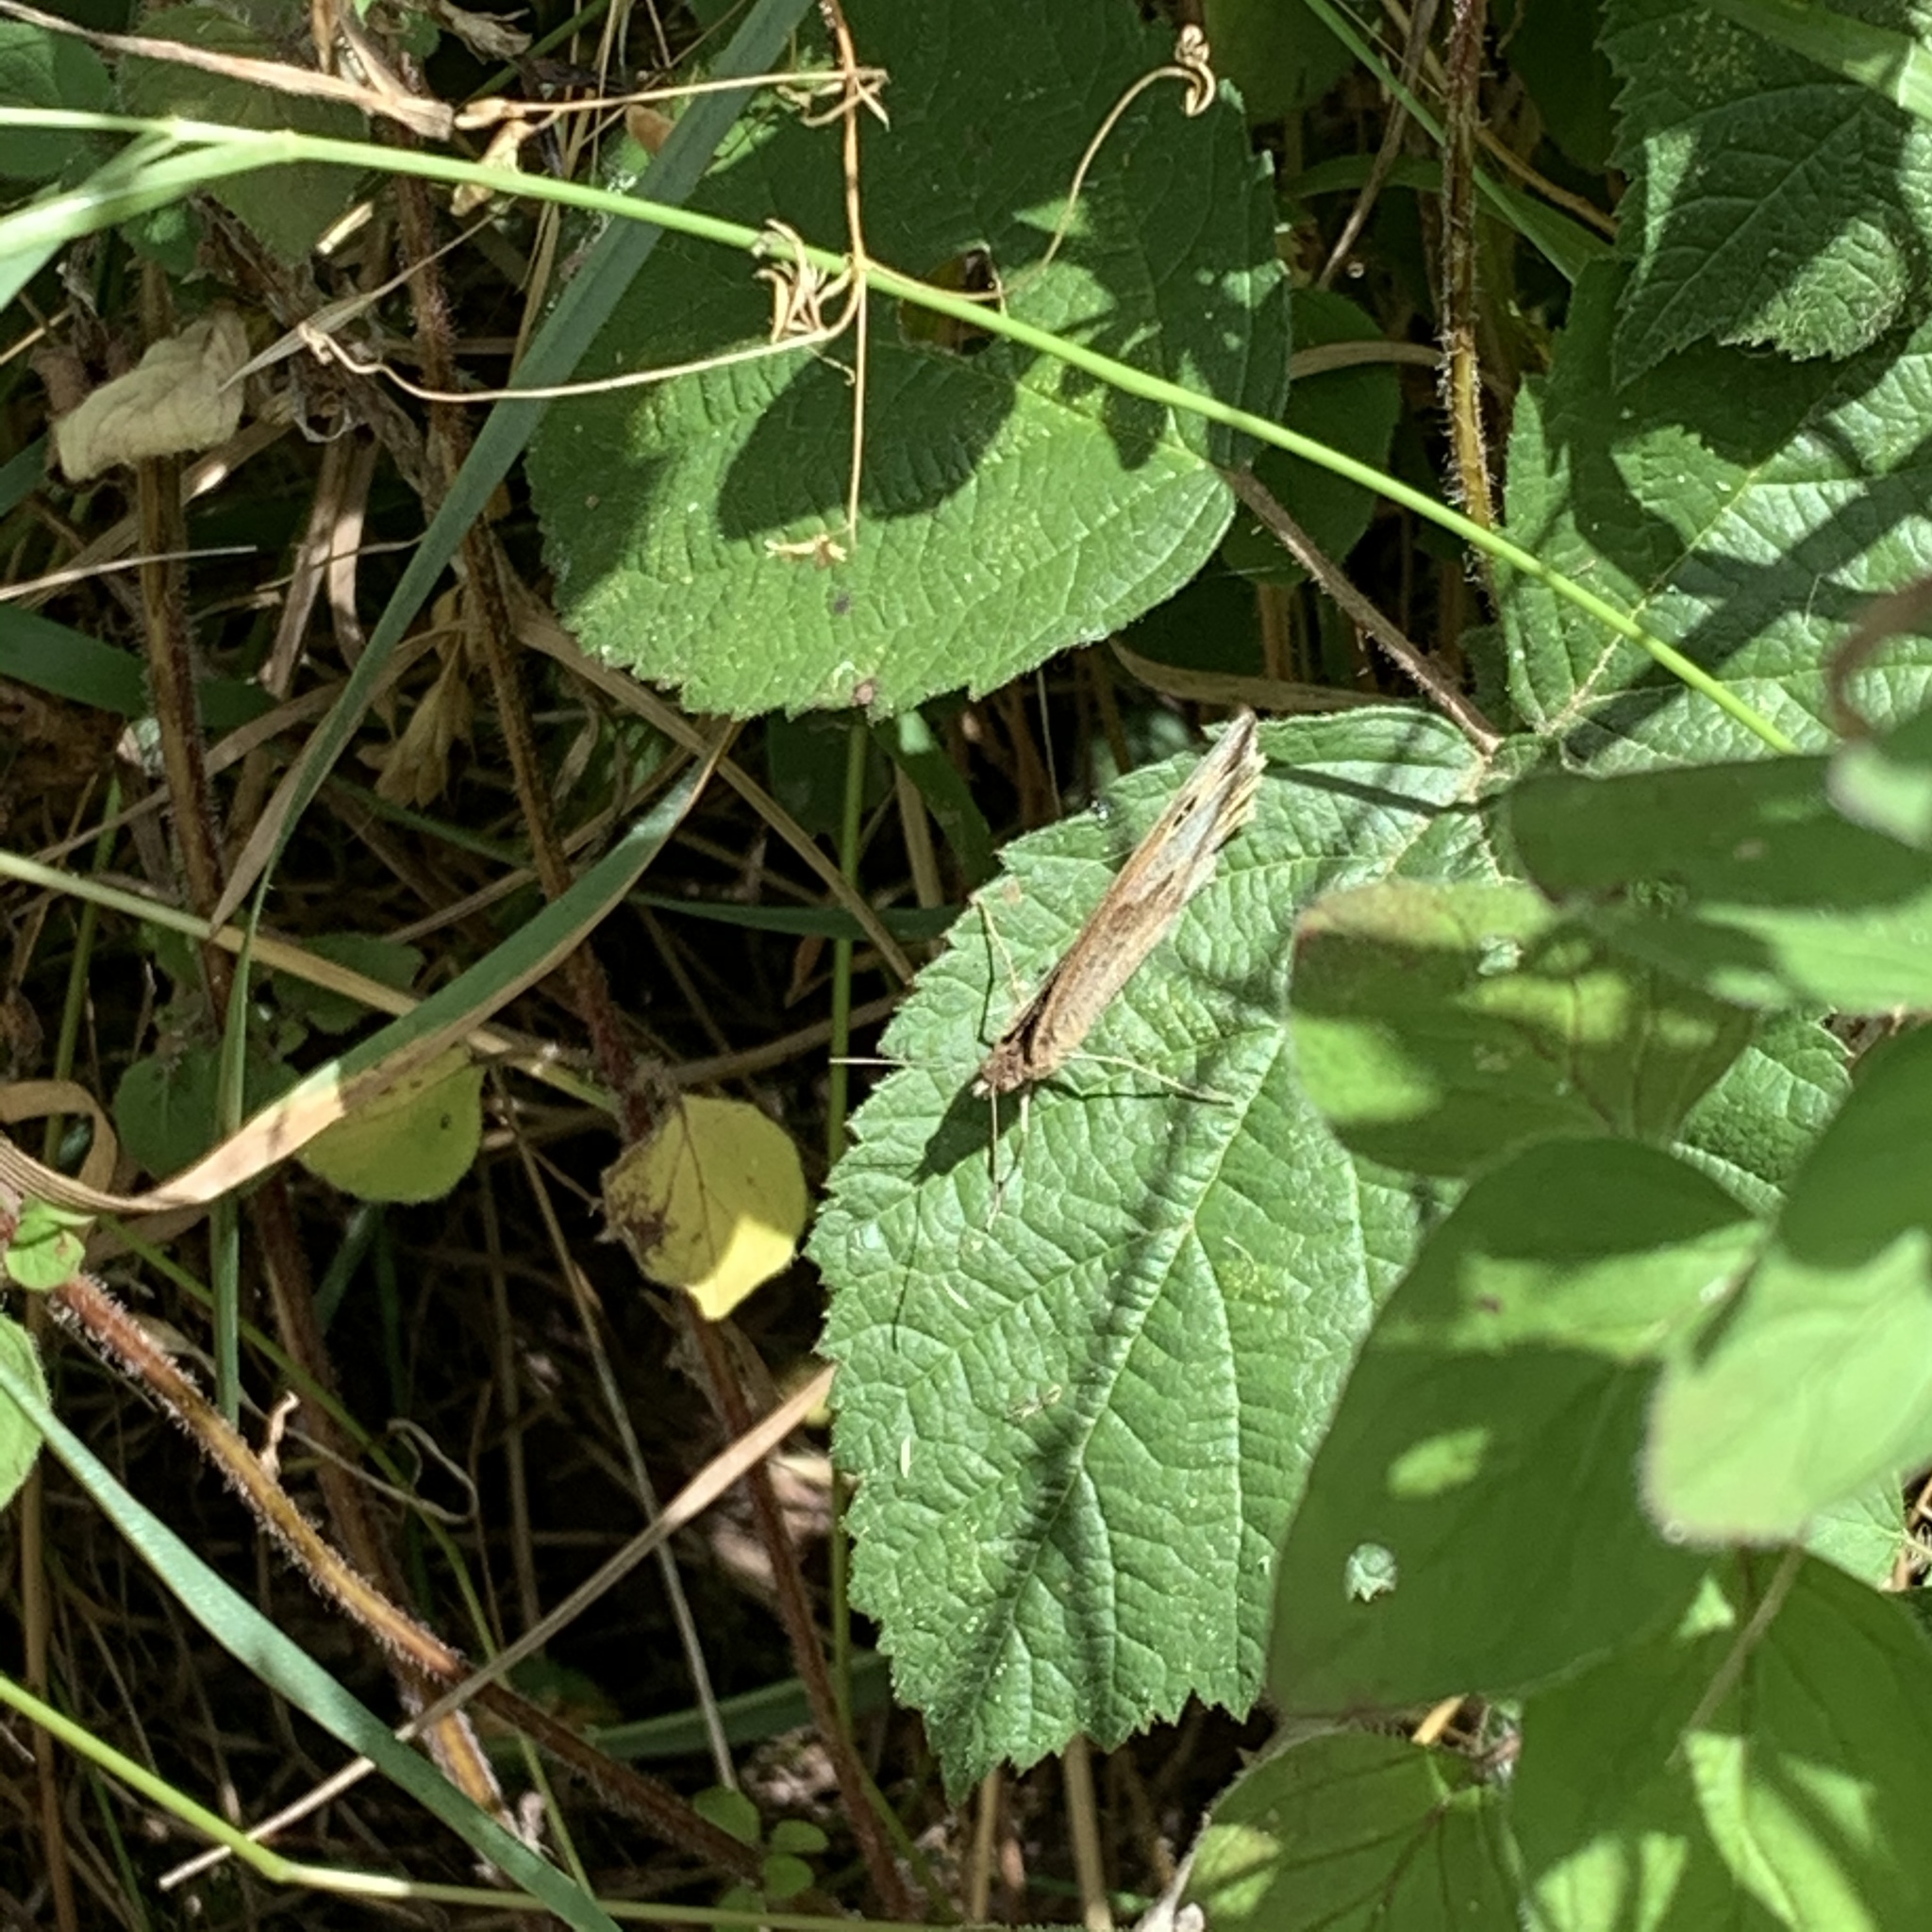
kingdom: Animalia
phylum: Arthropoda
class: Insecta
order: Lepidoptera
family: Nymphalidae
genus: Maniola
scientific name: Maniola jurtina
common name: Meadow brown
